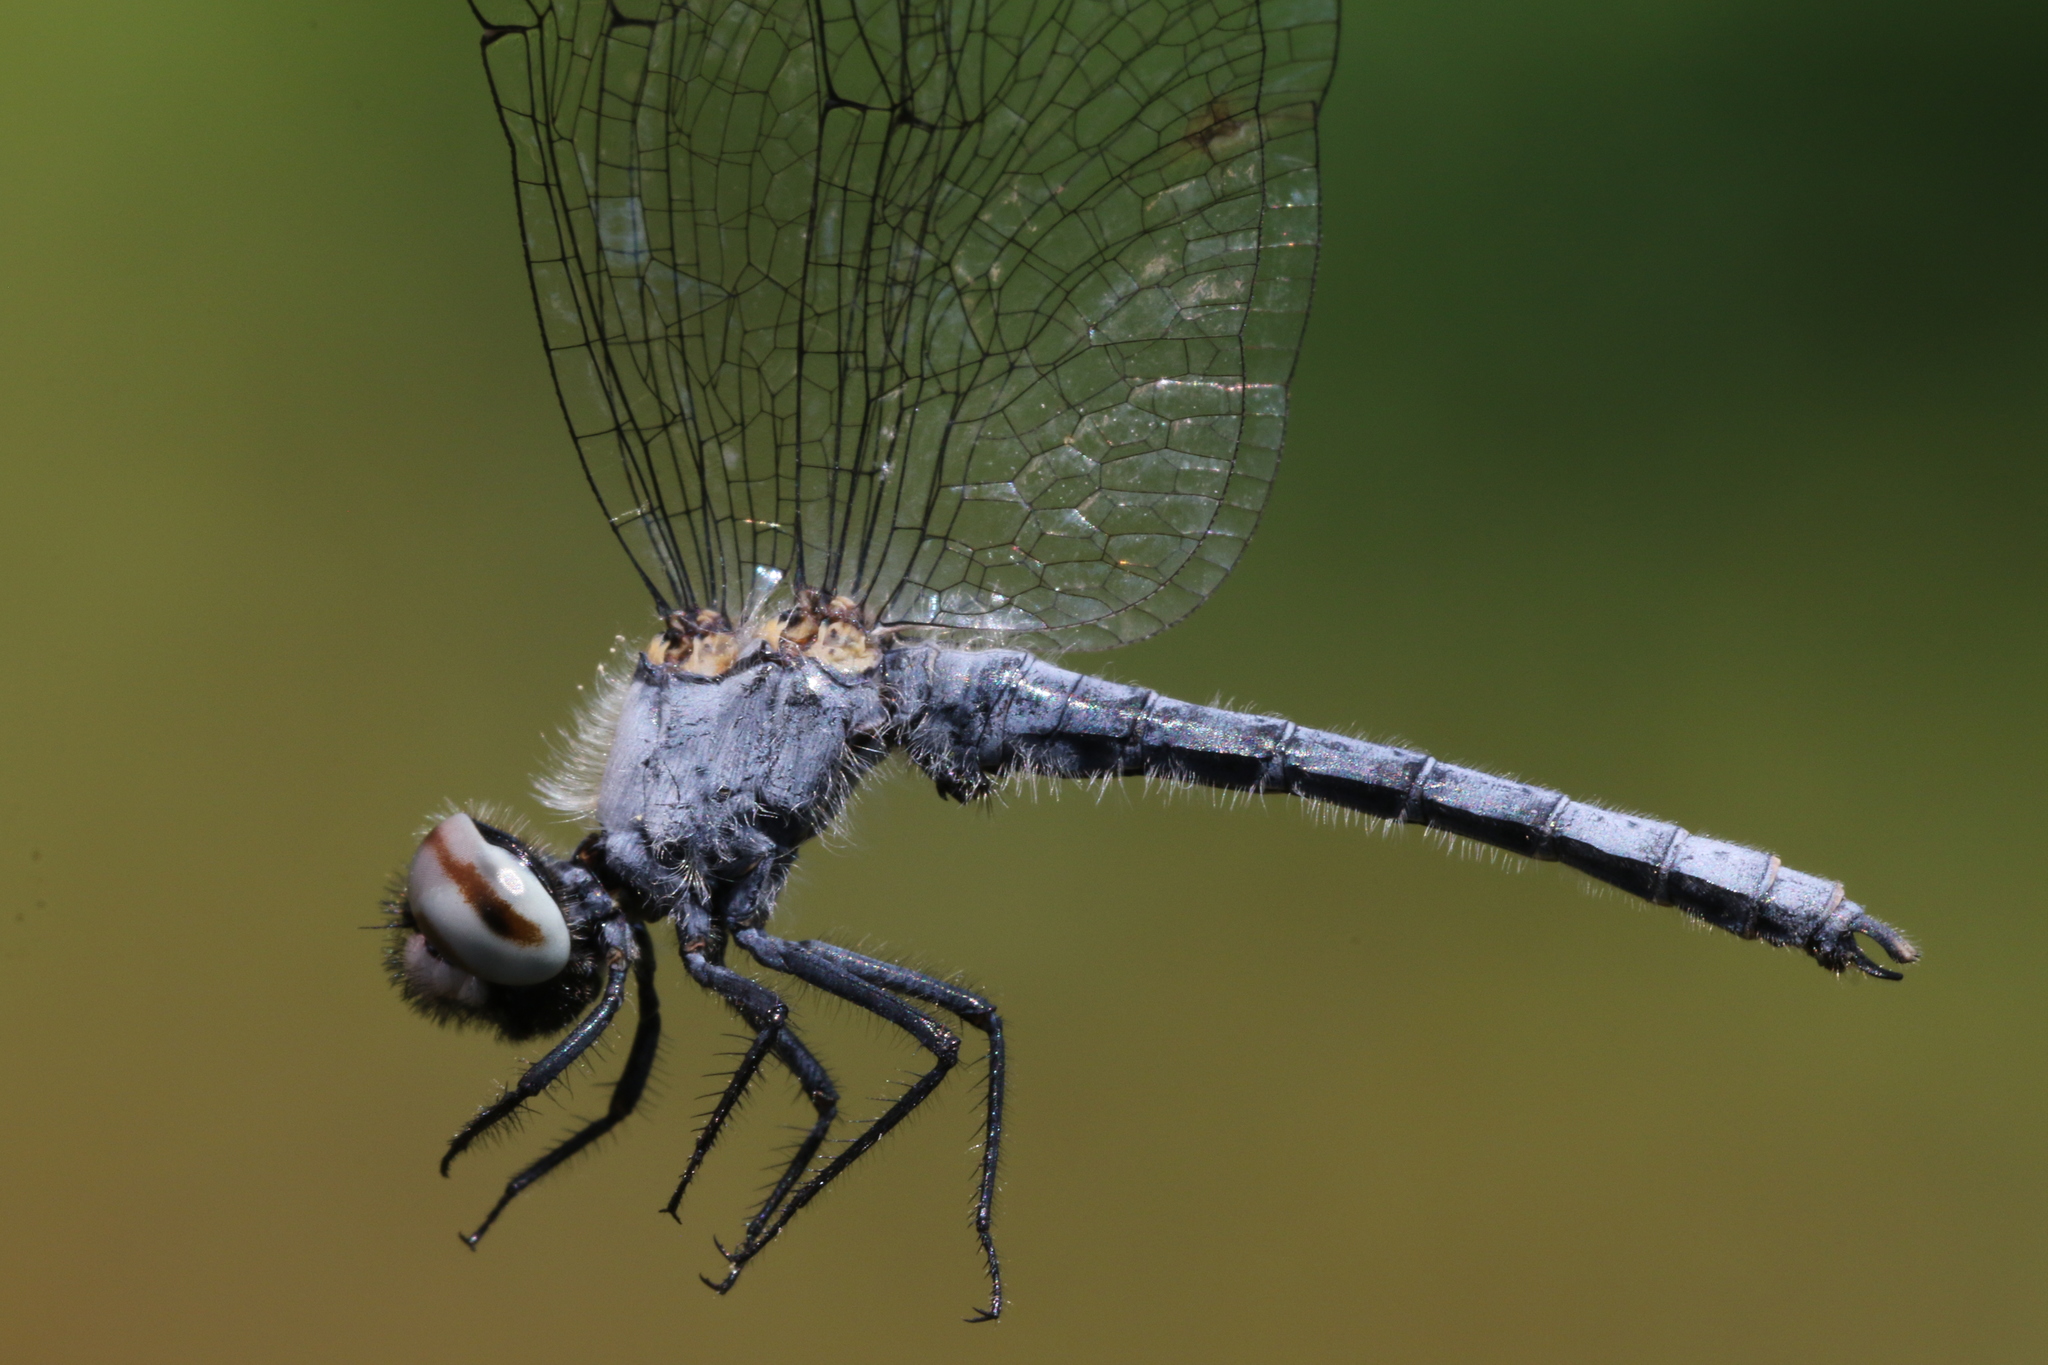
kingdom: Animalia
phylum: Arthropoda
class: Insecta
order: Odonata
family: Libellulidae
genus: Nannothemis
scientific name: Nannothemis bella
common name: Elfin skimmer
